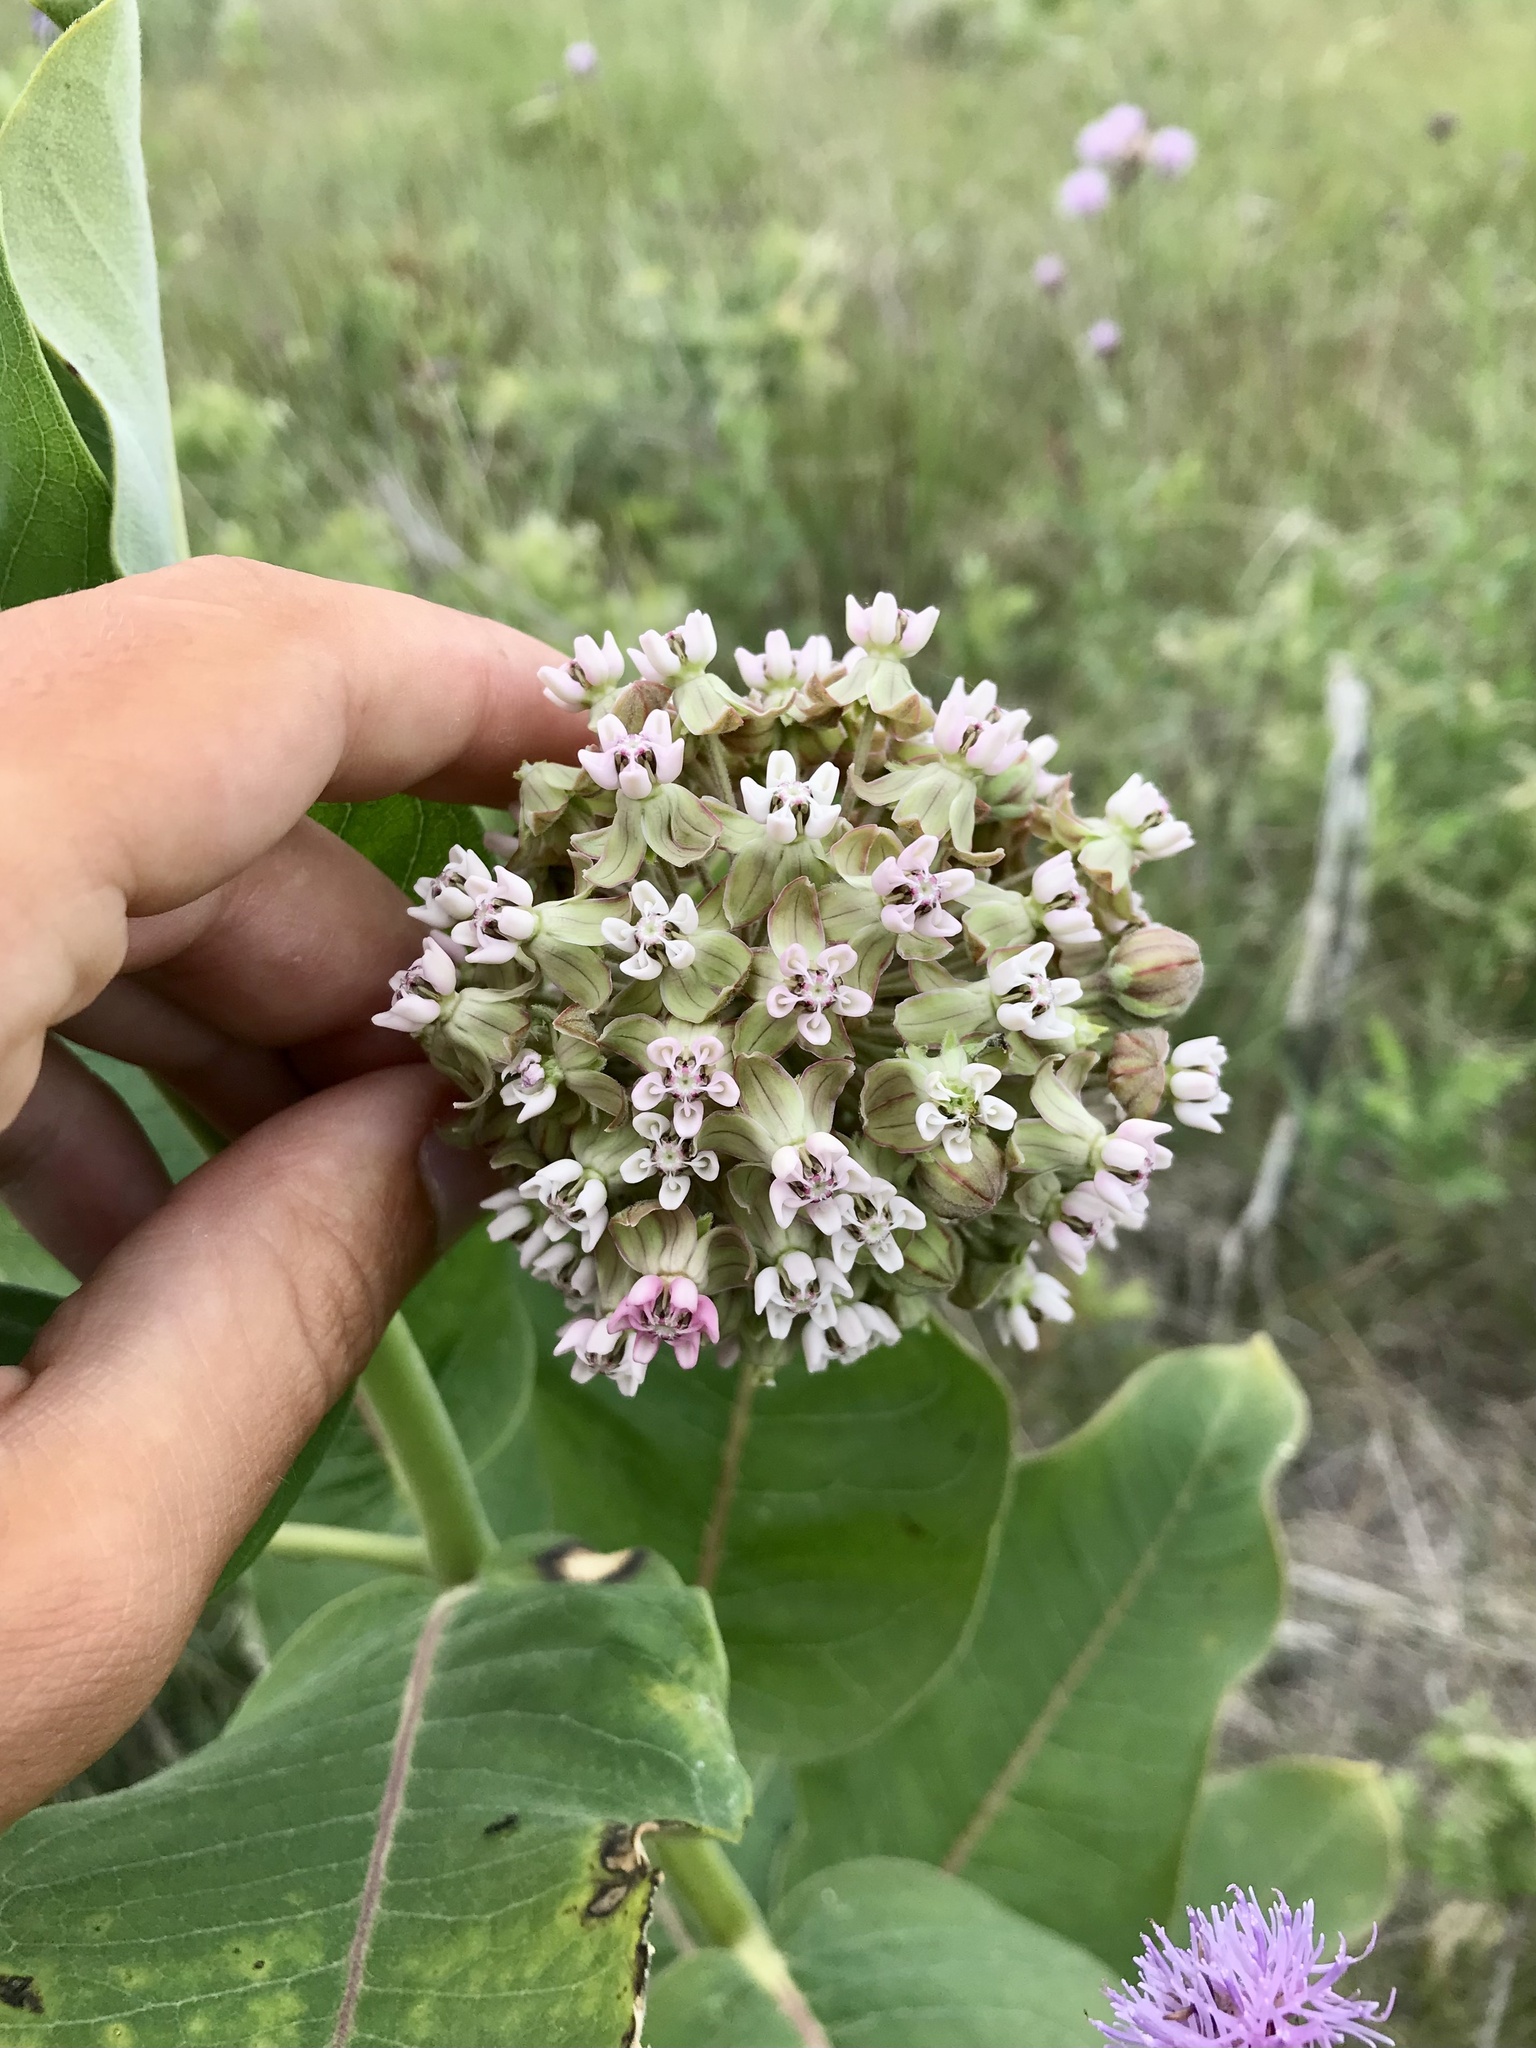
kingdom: Plantae
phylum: Tracheophyta
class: Magnoliopsida
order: Gentianales
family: Apocynaceae
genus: Asclepias
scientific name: Asclepias syriaca
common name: Common milkweed
